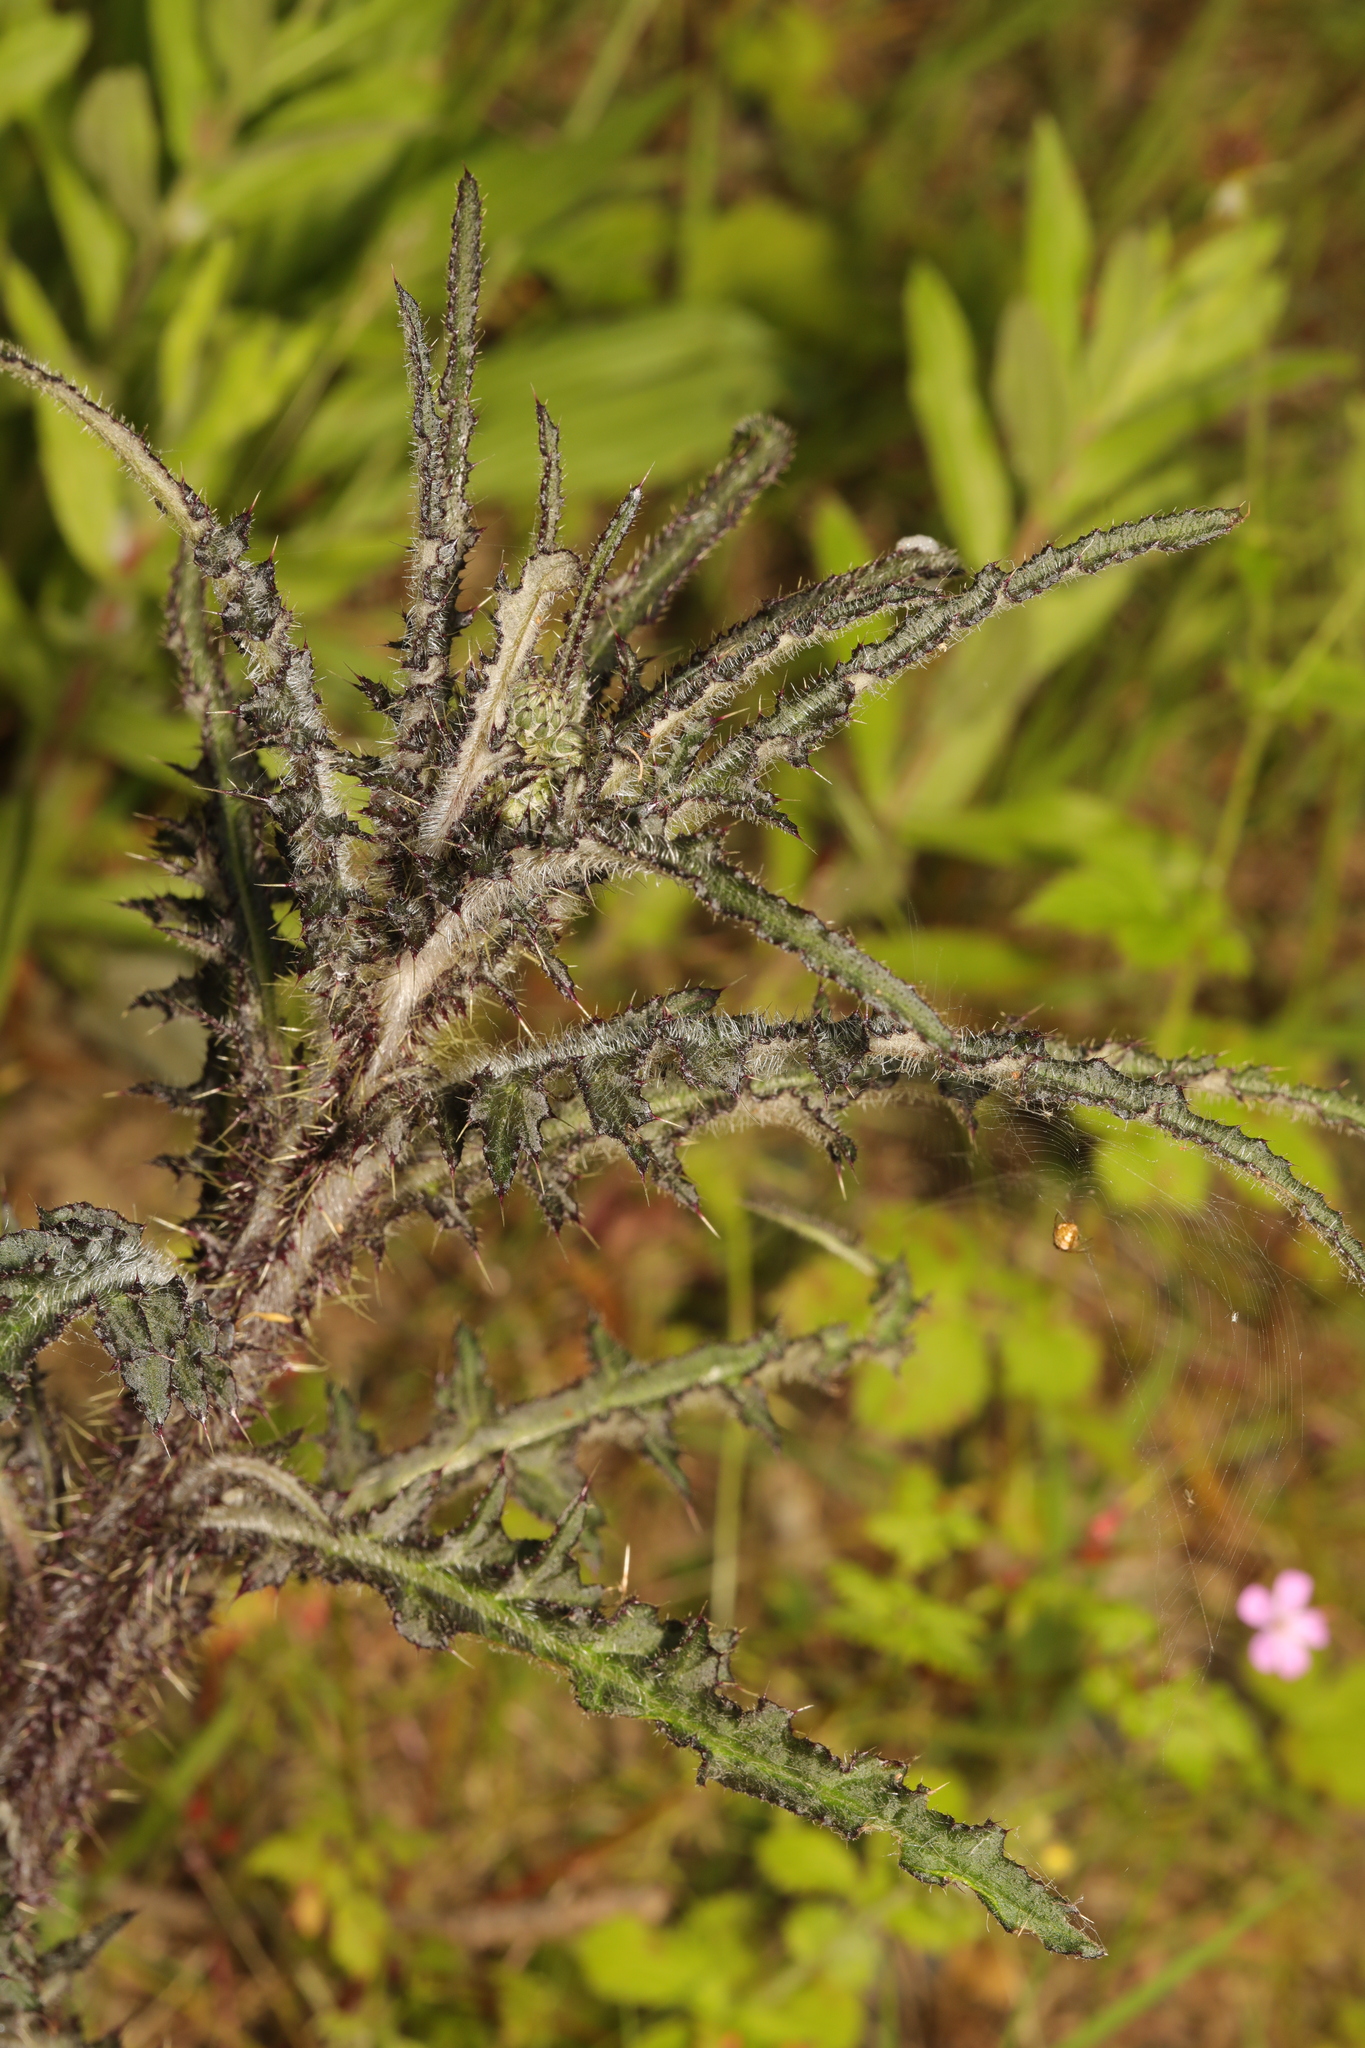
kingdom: Plantae
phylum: Tracheophyta
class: Magnoliopsida
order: Asterales
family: Asteraceae
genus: Cirsium
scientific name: Cirsium palustre
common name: Marsh thistle
